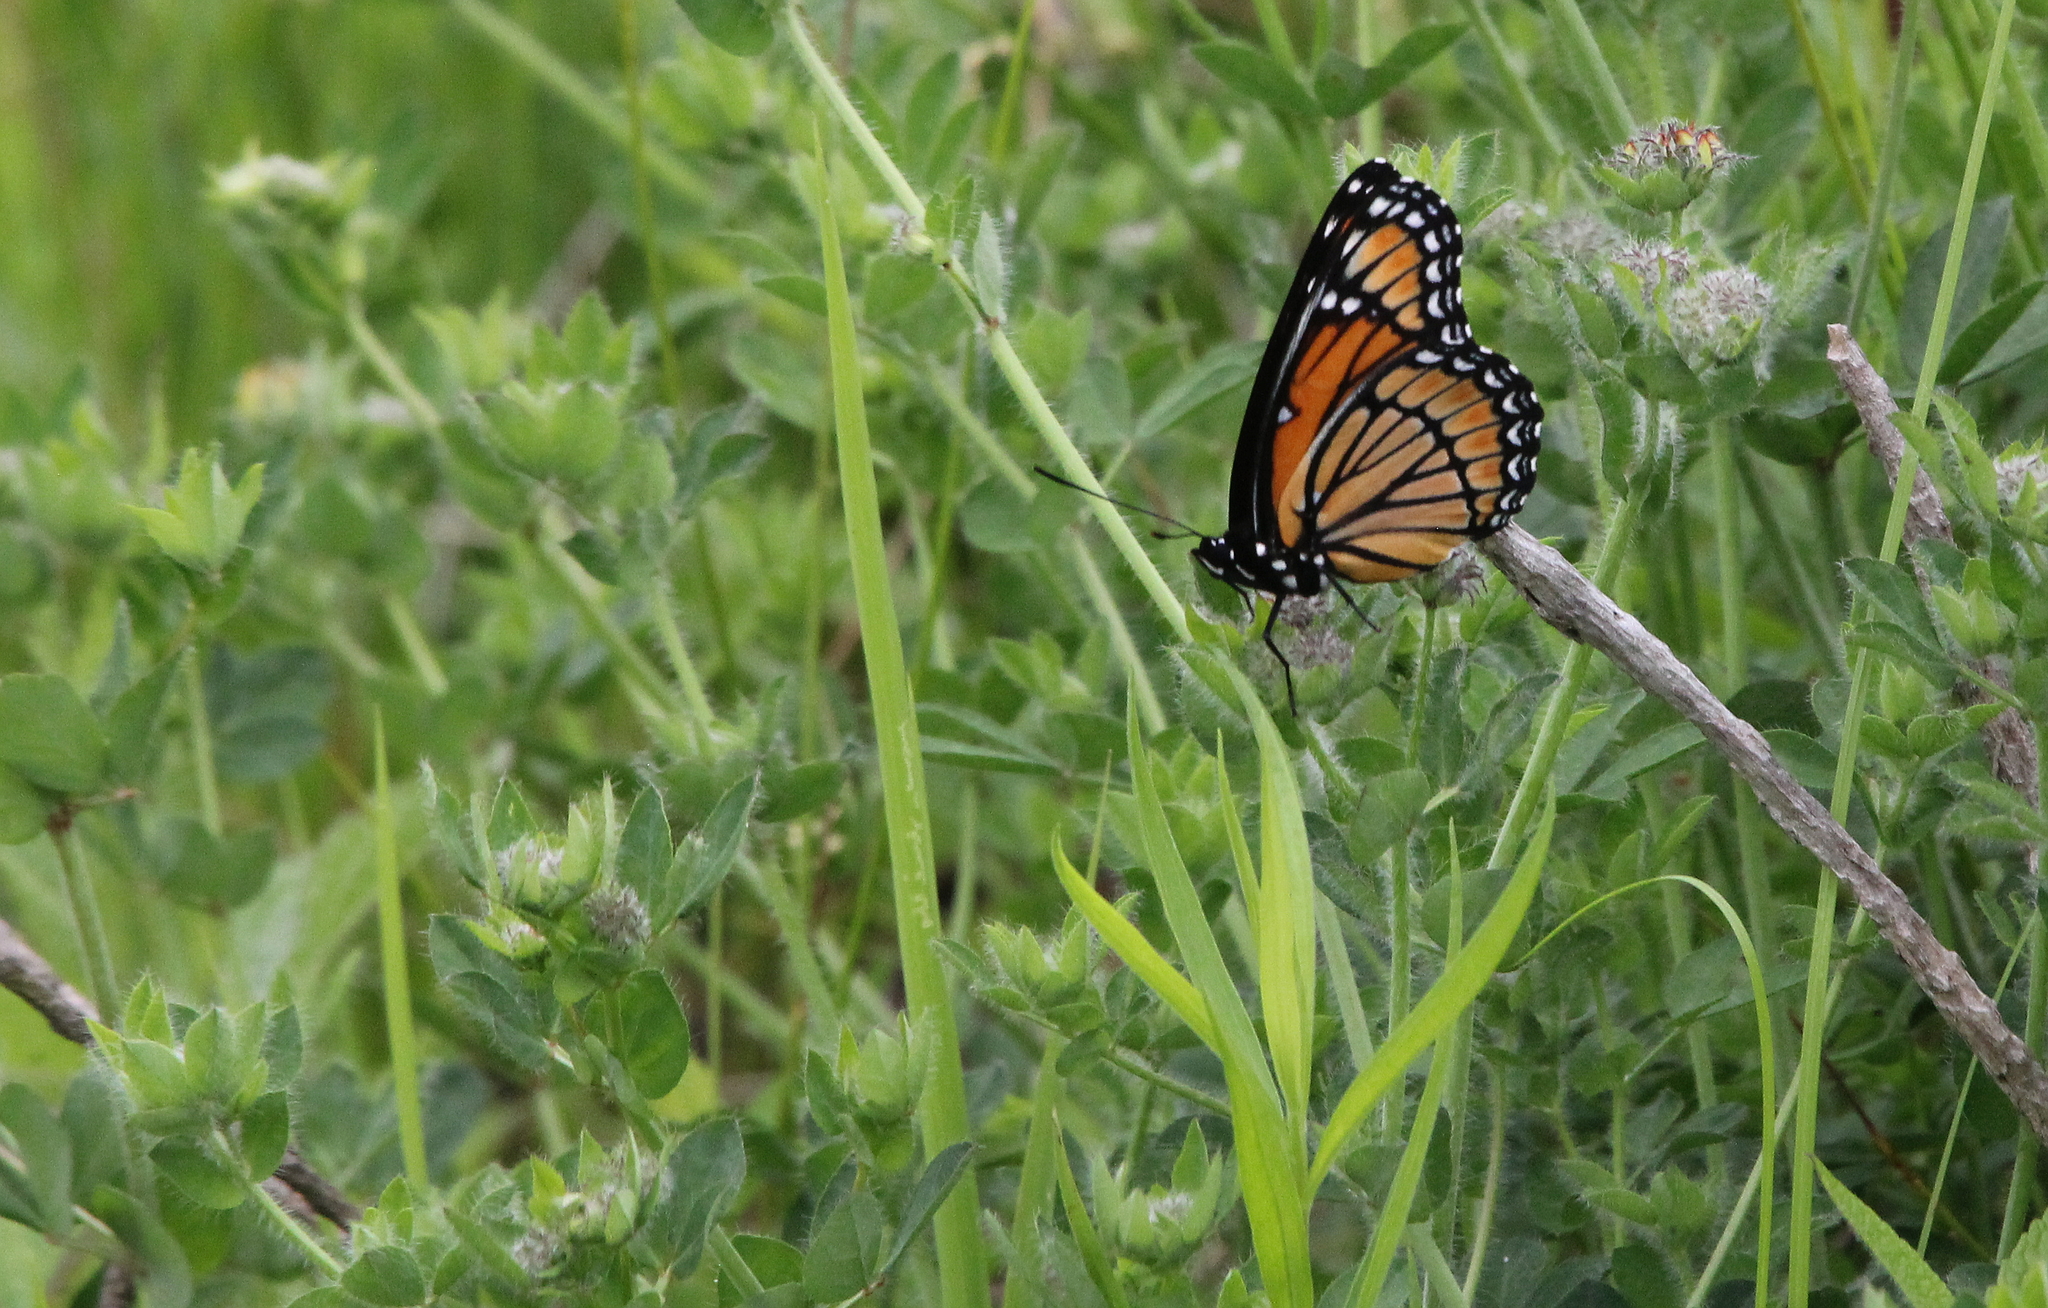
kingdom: Animalia
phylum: Arthropoda
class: Insecta
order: Lepidoptera
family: Nymphalidae
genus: Limenitis
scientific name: Limenitis archippus
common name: Viceroy
